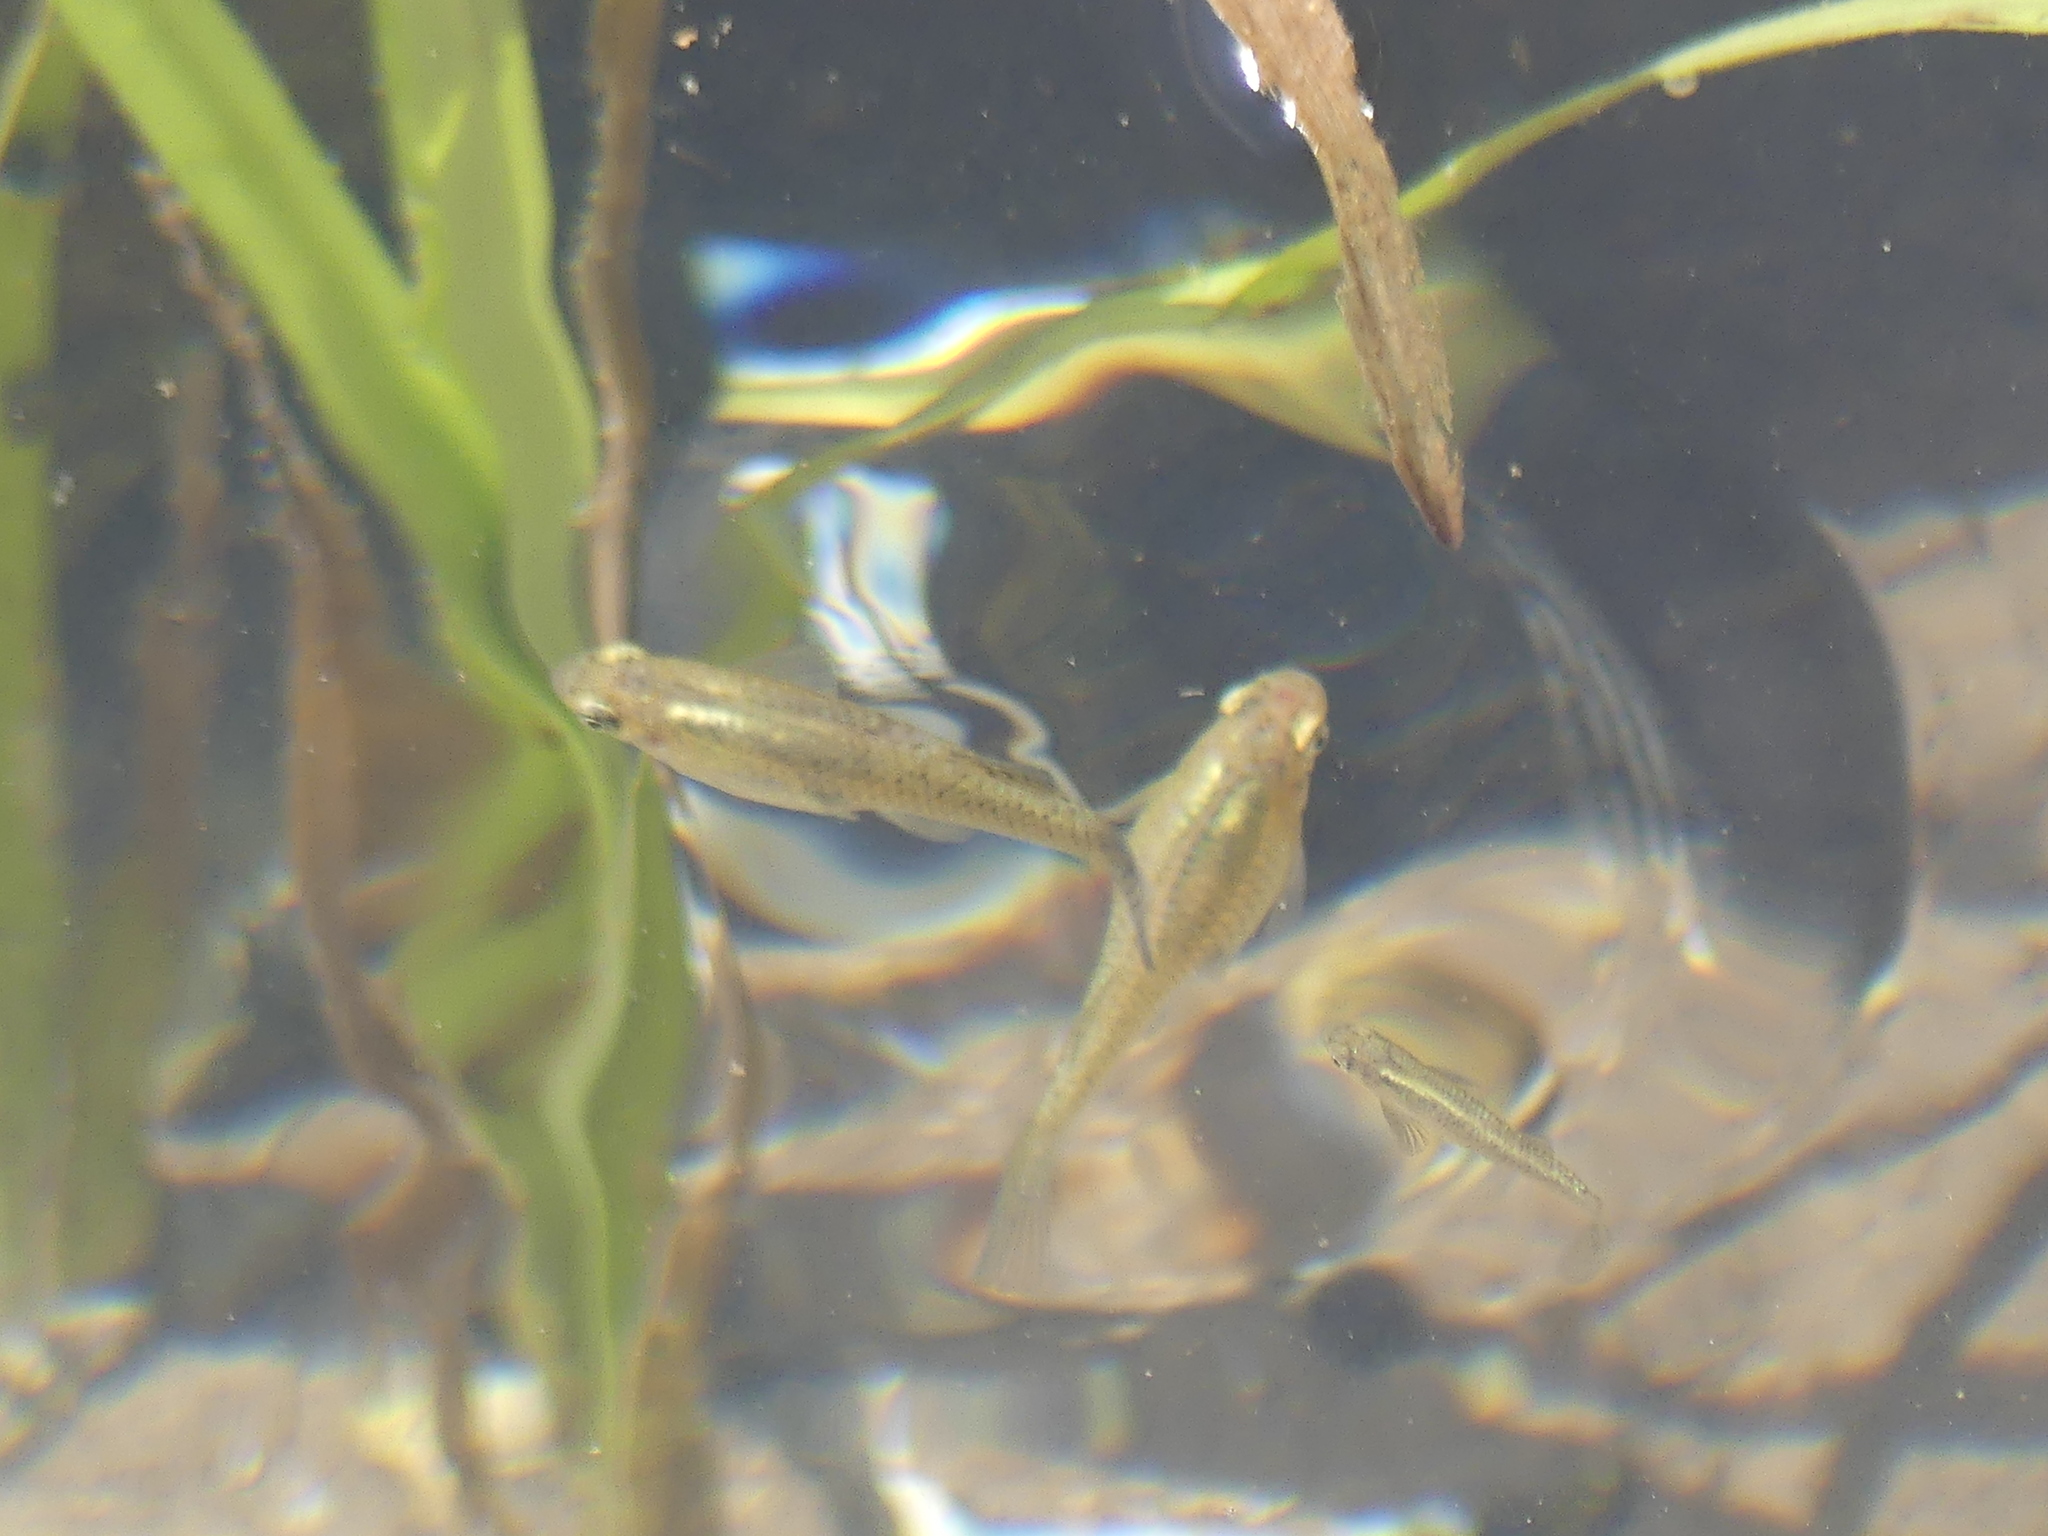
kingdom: Animalia
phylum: Chordata
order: Cyprinodontiformes
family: Poeciliidae
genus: Gambusia
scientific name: Gambusia affinis
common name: Mosquitofish
